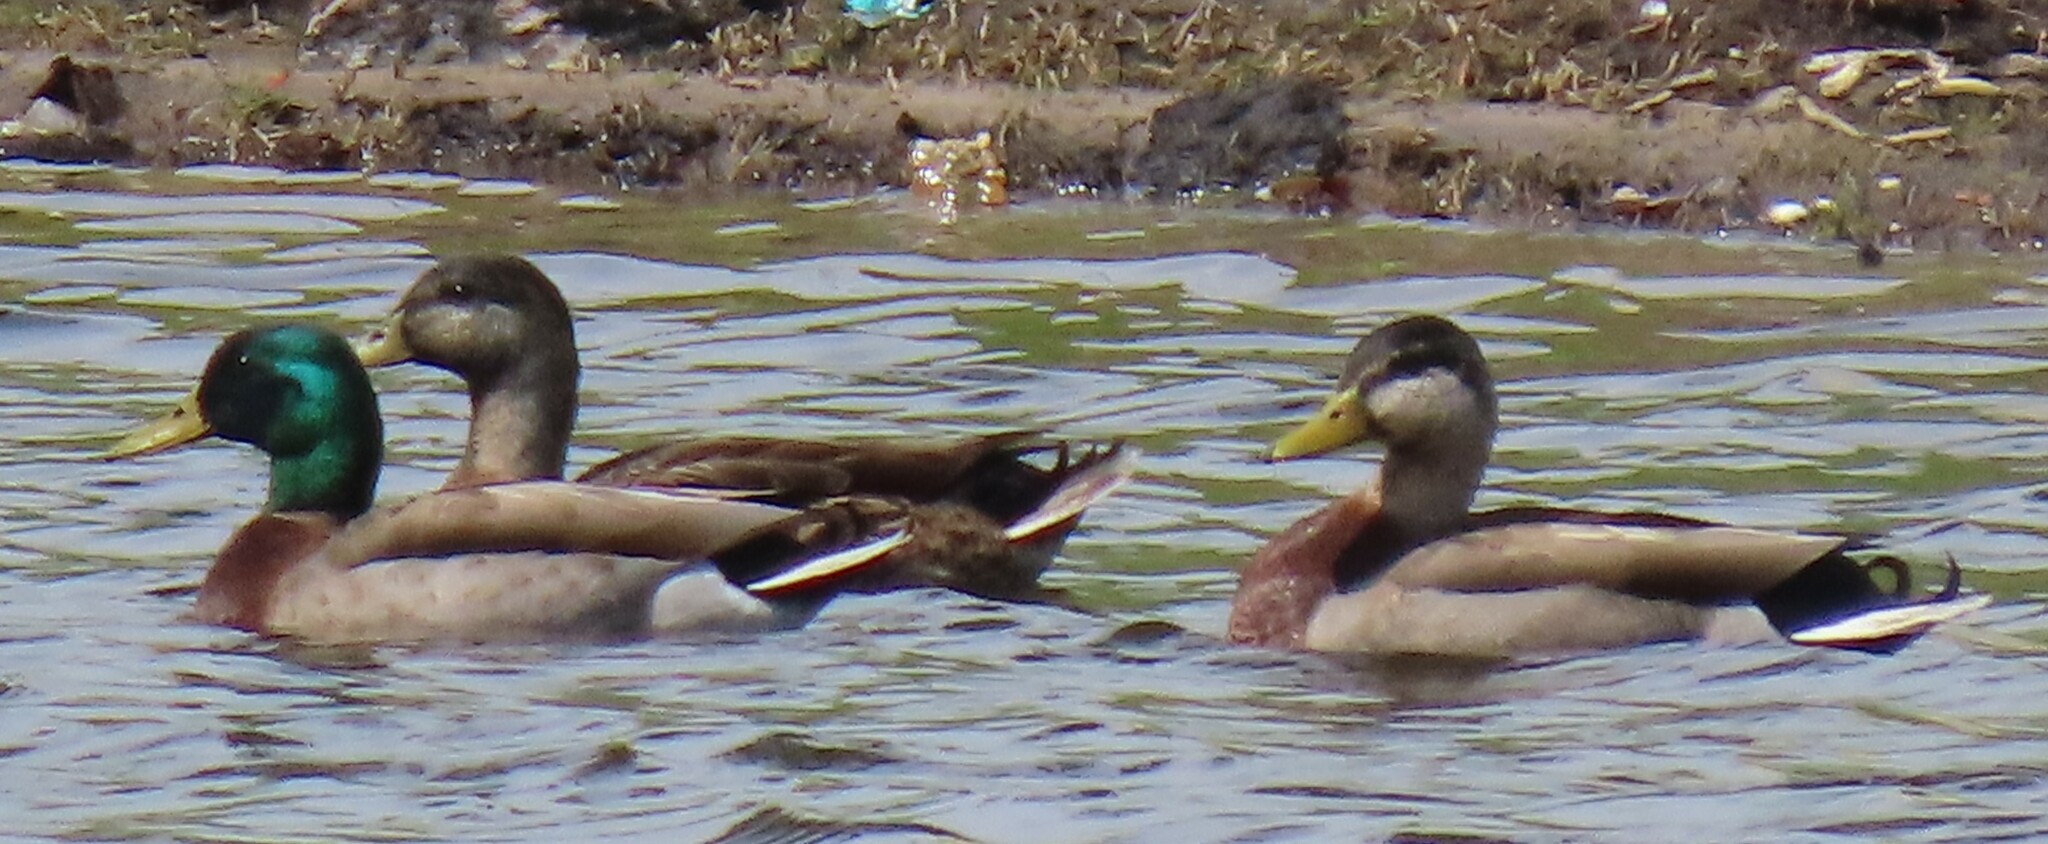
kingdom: Animalia
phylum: Chordata
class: Aves
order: Anseriformes
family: Anatidae
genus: Anas
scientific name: Anas platyrhynchos
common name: Mallard
